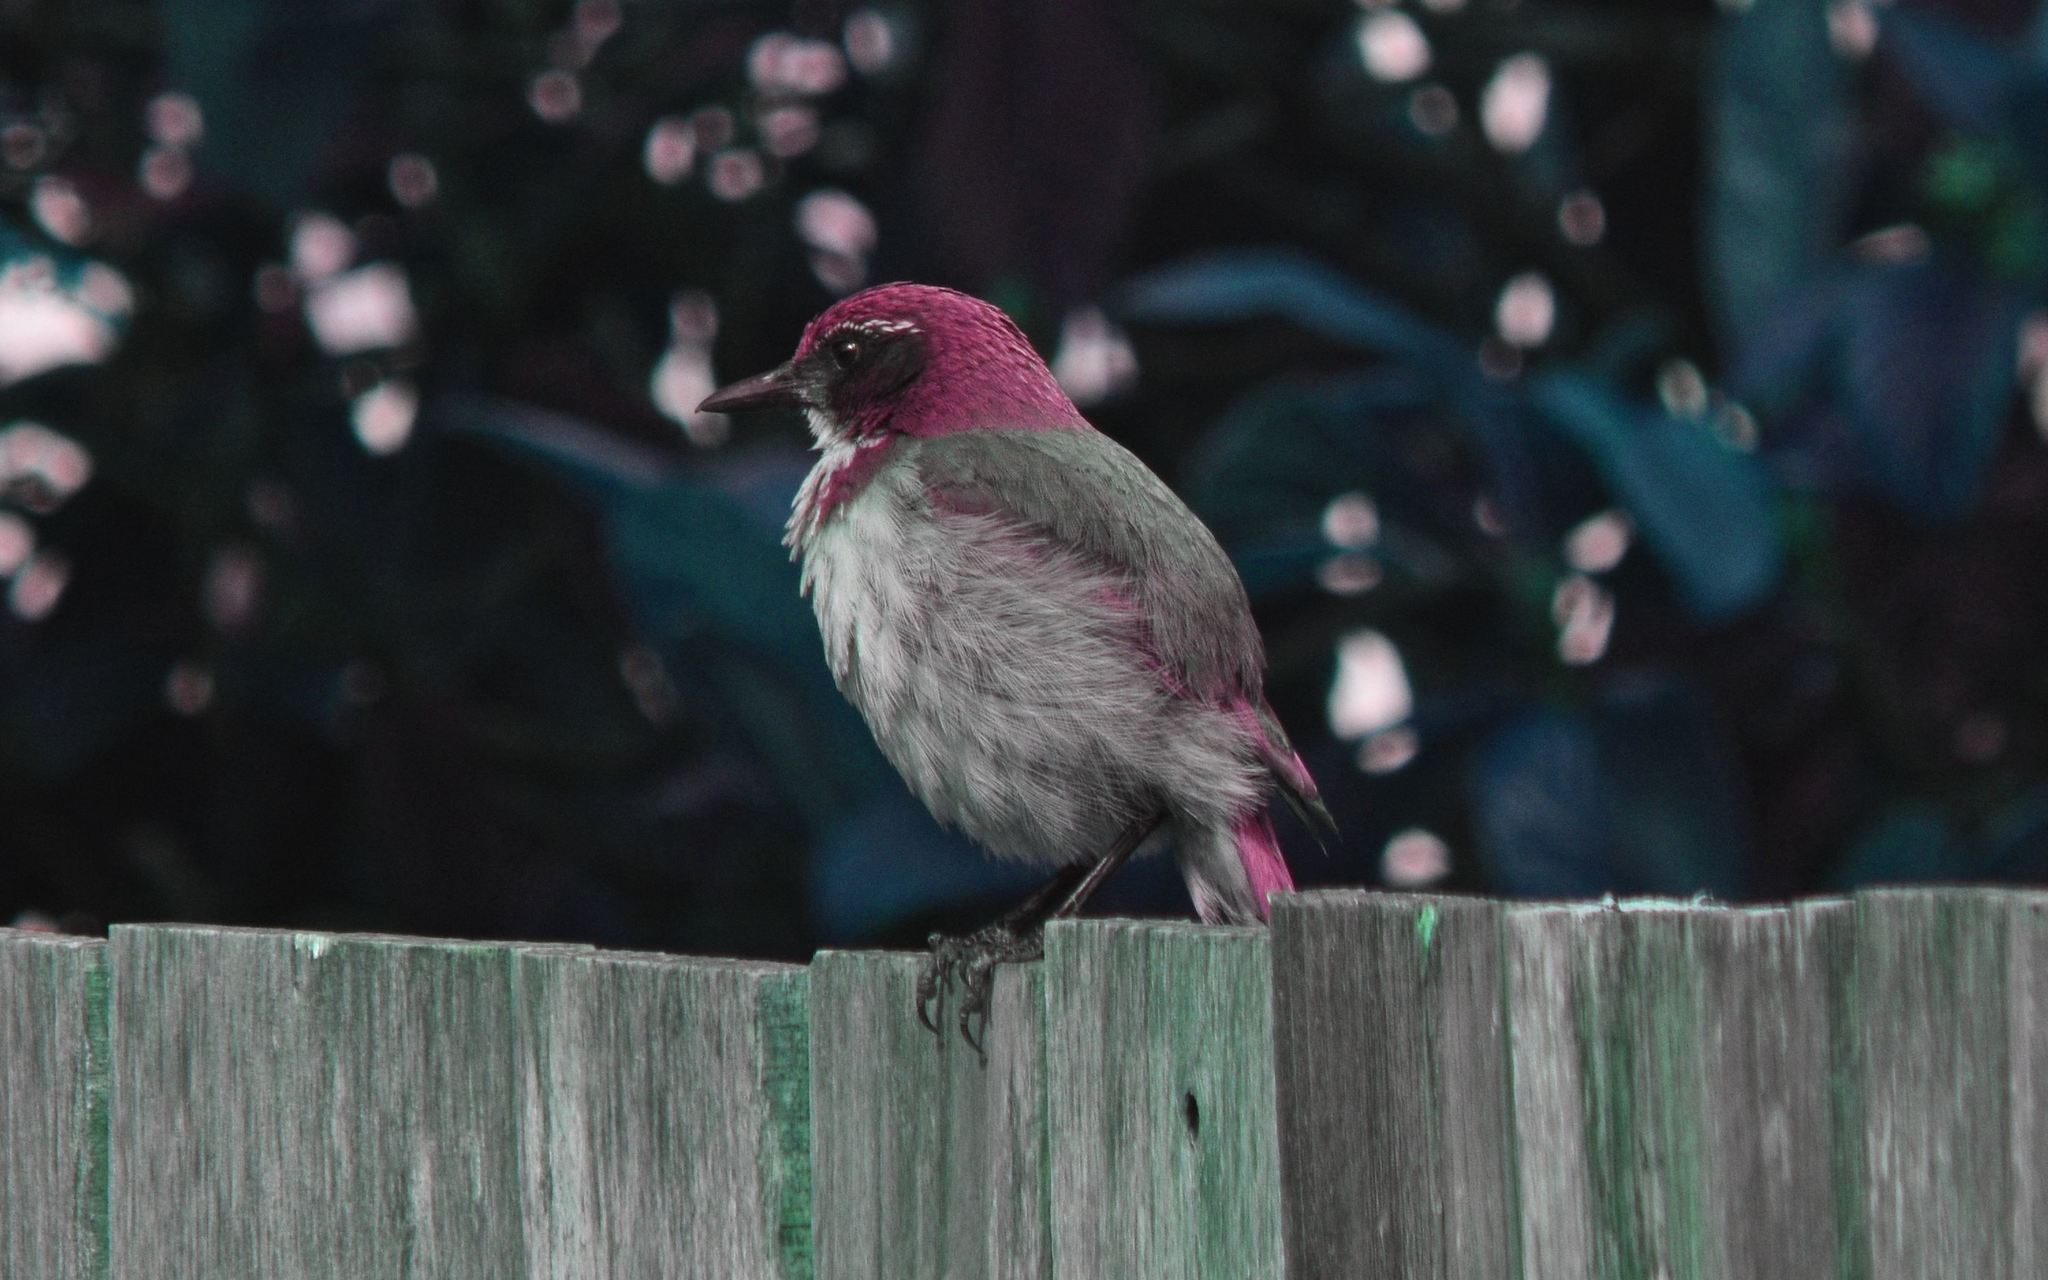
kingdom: Animalia
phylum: Chordata
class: Aves
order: Passeriformes
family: Corvidae
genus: Aphelocoma
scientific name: Aphelocoma californica
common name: California scrub-jay
